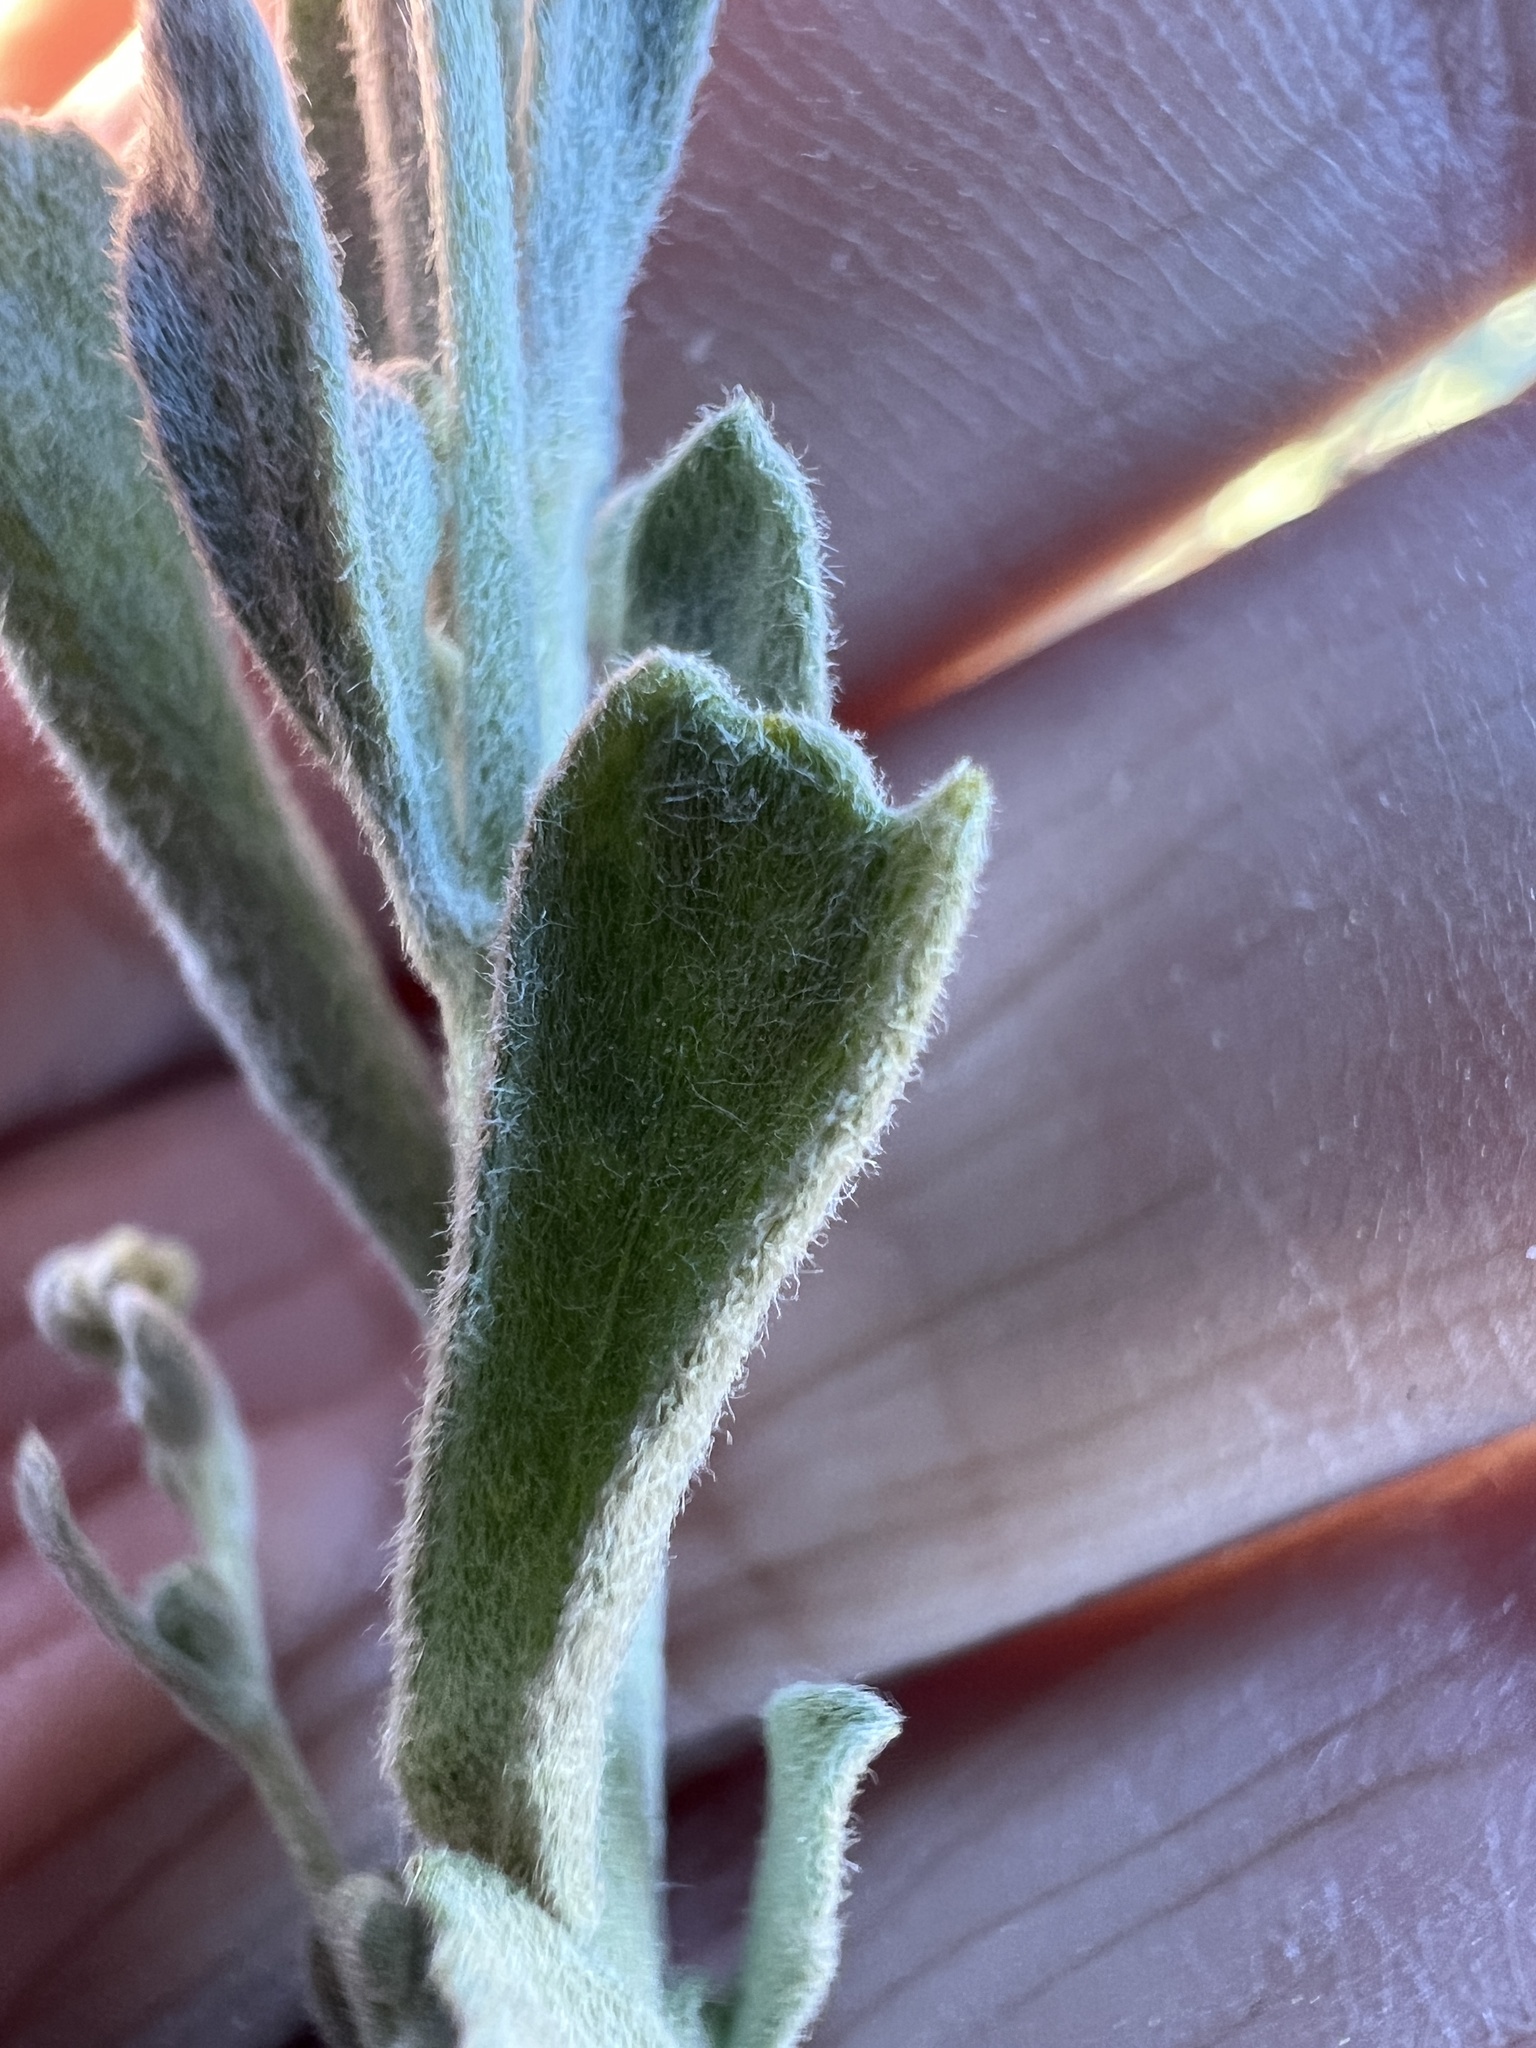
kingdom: Plantae
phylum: Tracheophyta
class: Magnoliopsida
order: Asterales
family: Asteraceae
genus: Artemisia
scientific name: Artemisia tridentata
